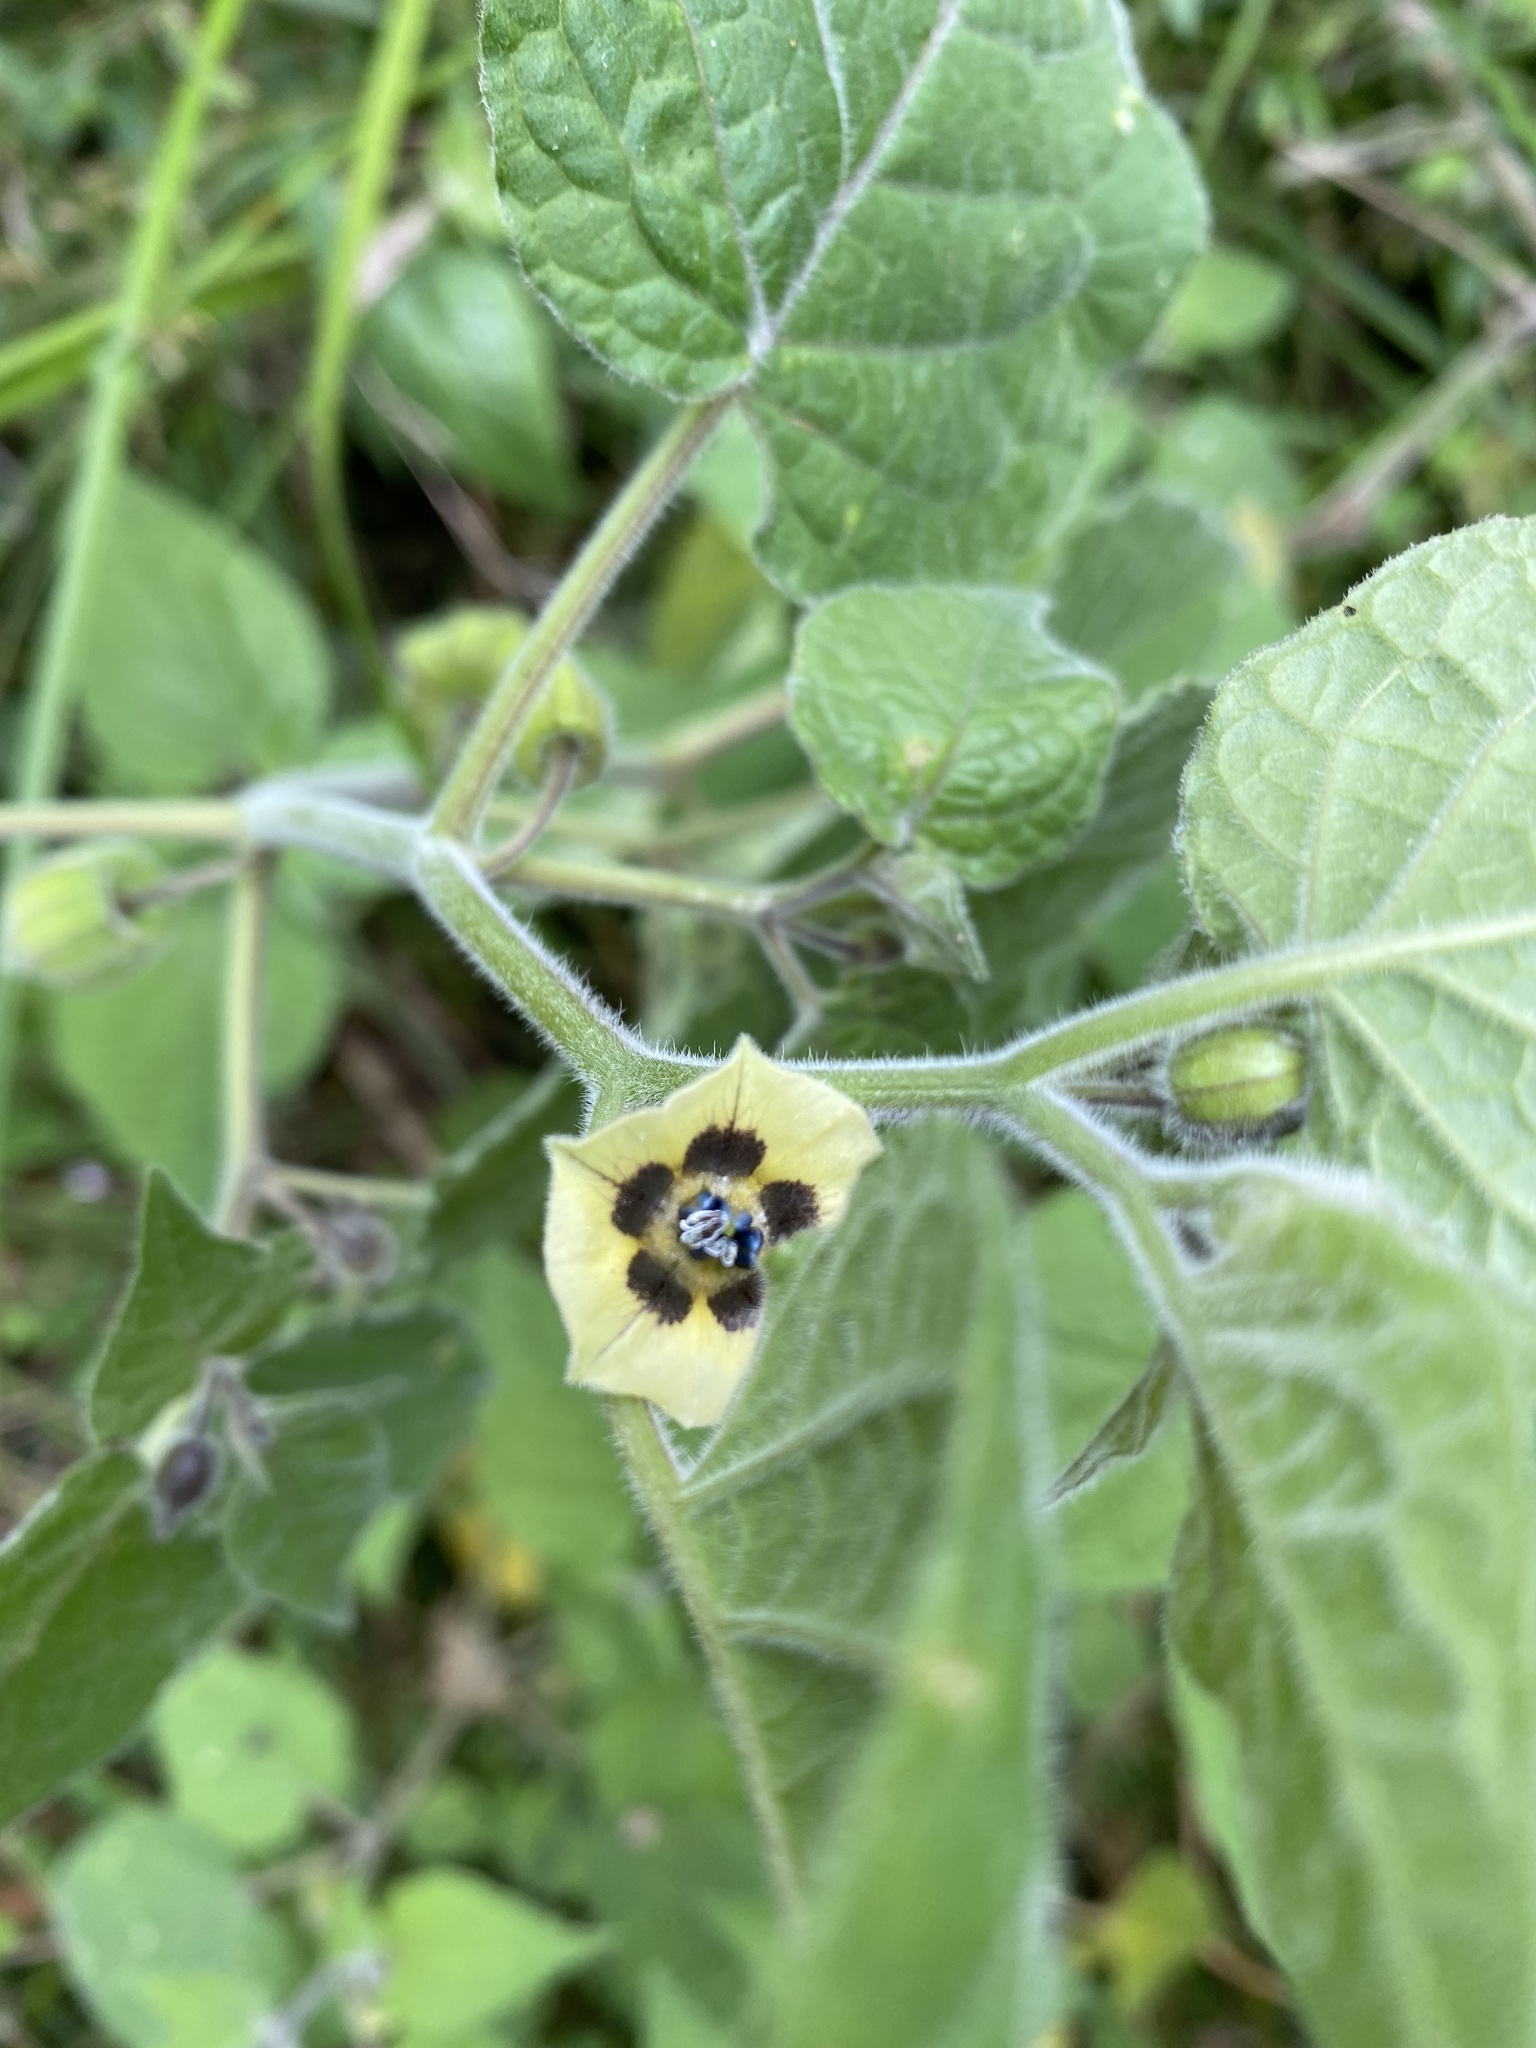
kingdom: Plantae
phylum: Tracheophyta
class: Magnoliopsida
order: Solanales
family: Solanaceae
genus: Physalis
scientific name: Physalis peruviana
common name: Cape-gooseberry
